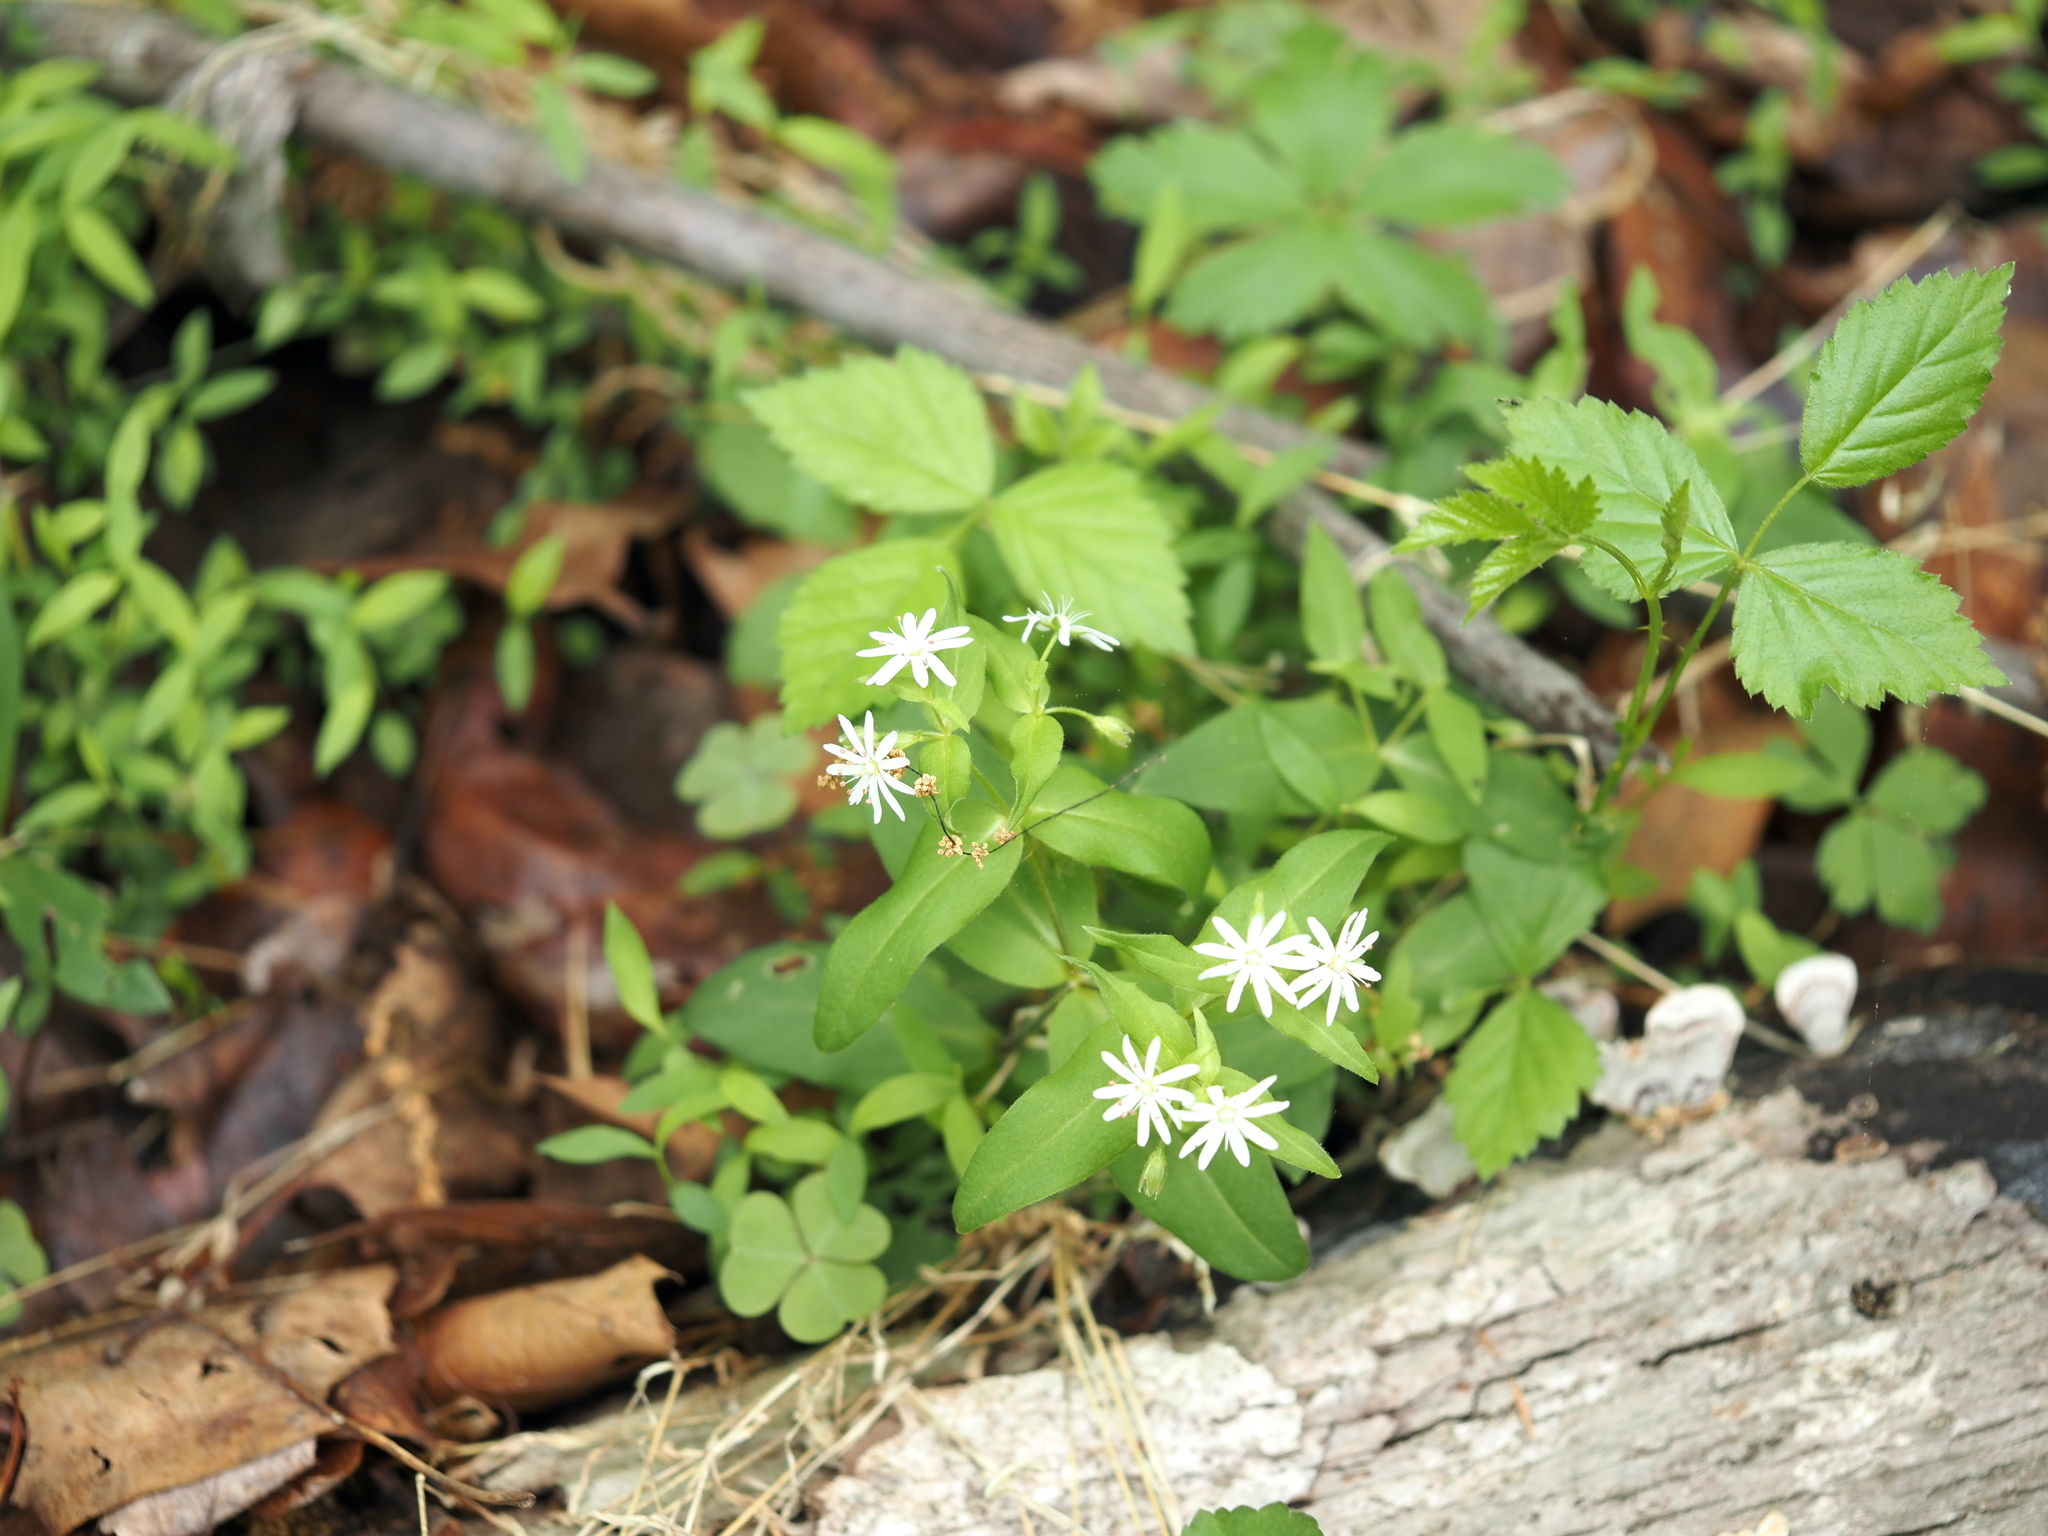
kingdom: Plantae
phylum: Tracheophyta
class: Magnoliopsida
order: Caryophyllales
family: Caryophyllaceae
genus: Stellaria
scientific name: Stellaria pubera
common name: Star chickweed
